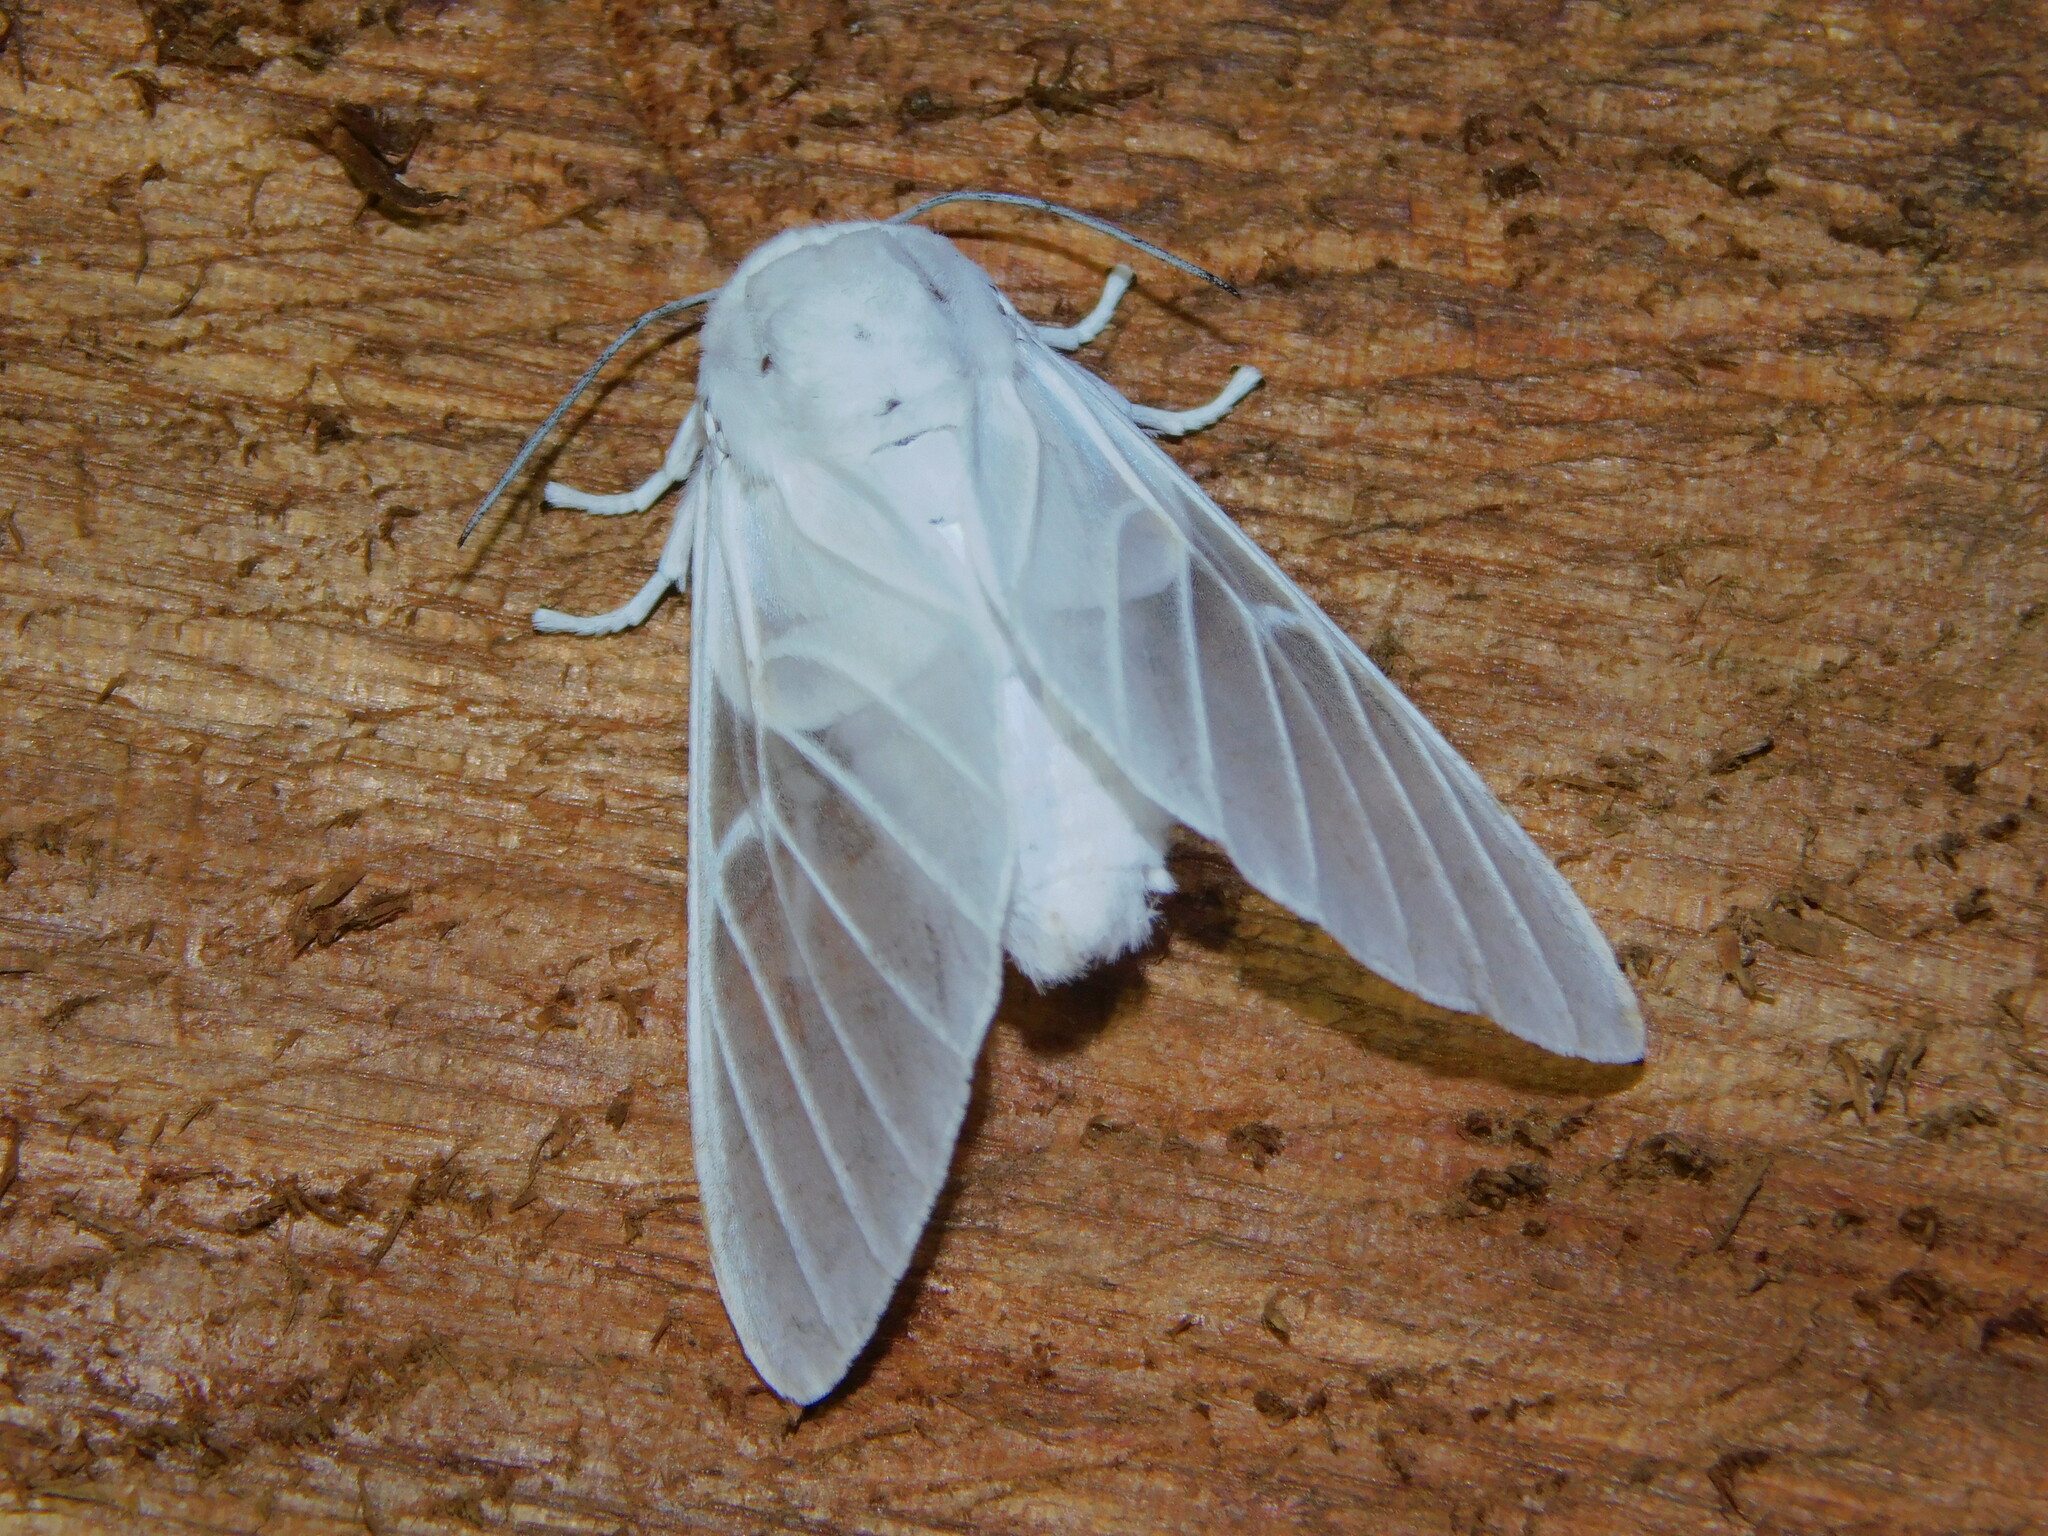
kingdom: Animalia
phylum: Arthropoda
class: Insecta
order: Lepidoptera
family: Erebidae
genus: Balacra
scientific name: Balacra pulchra
